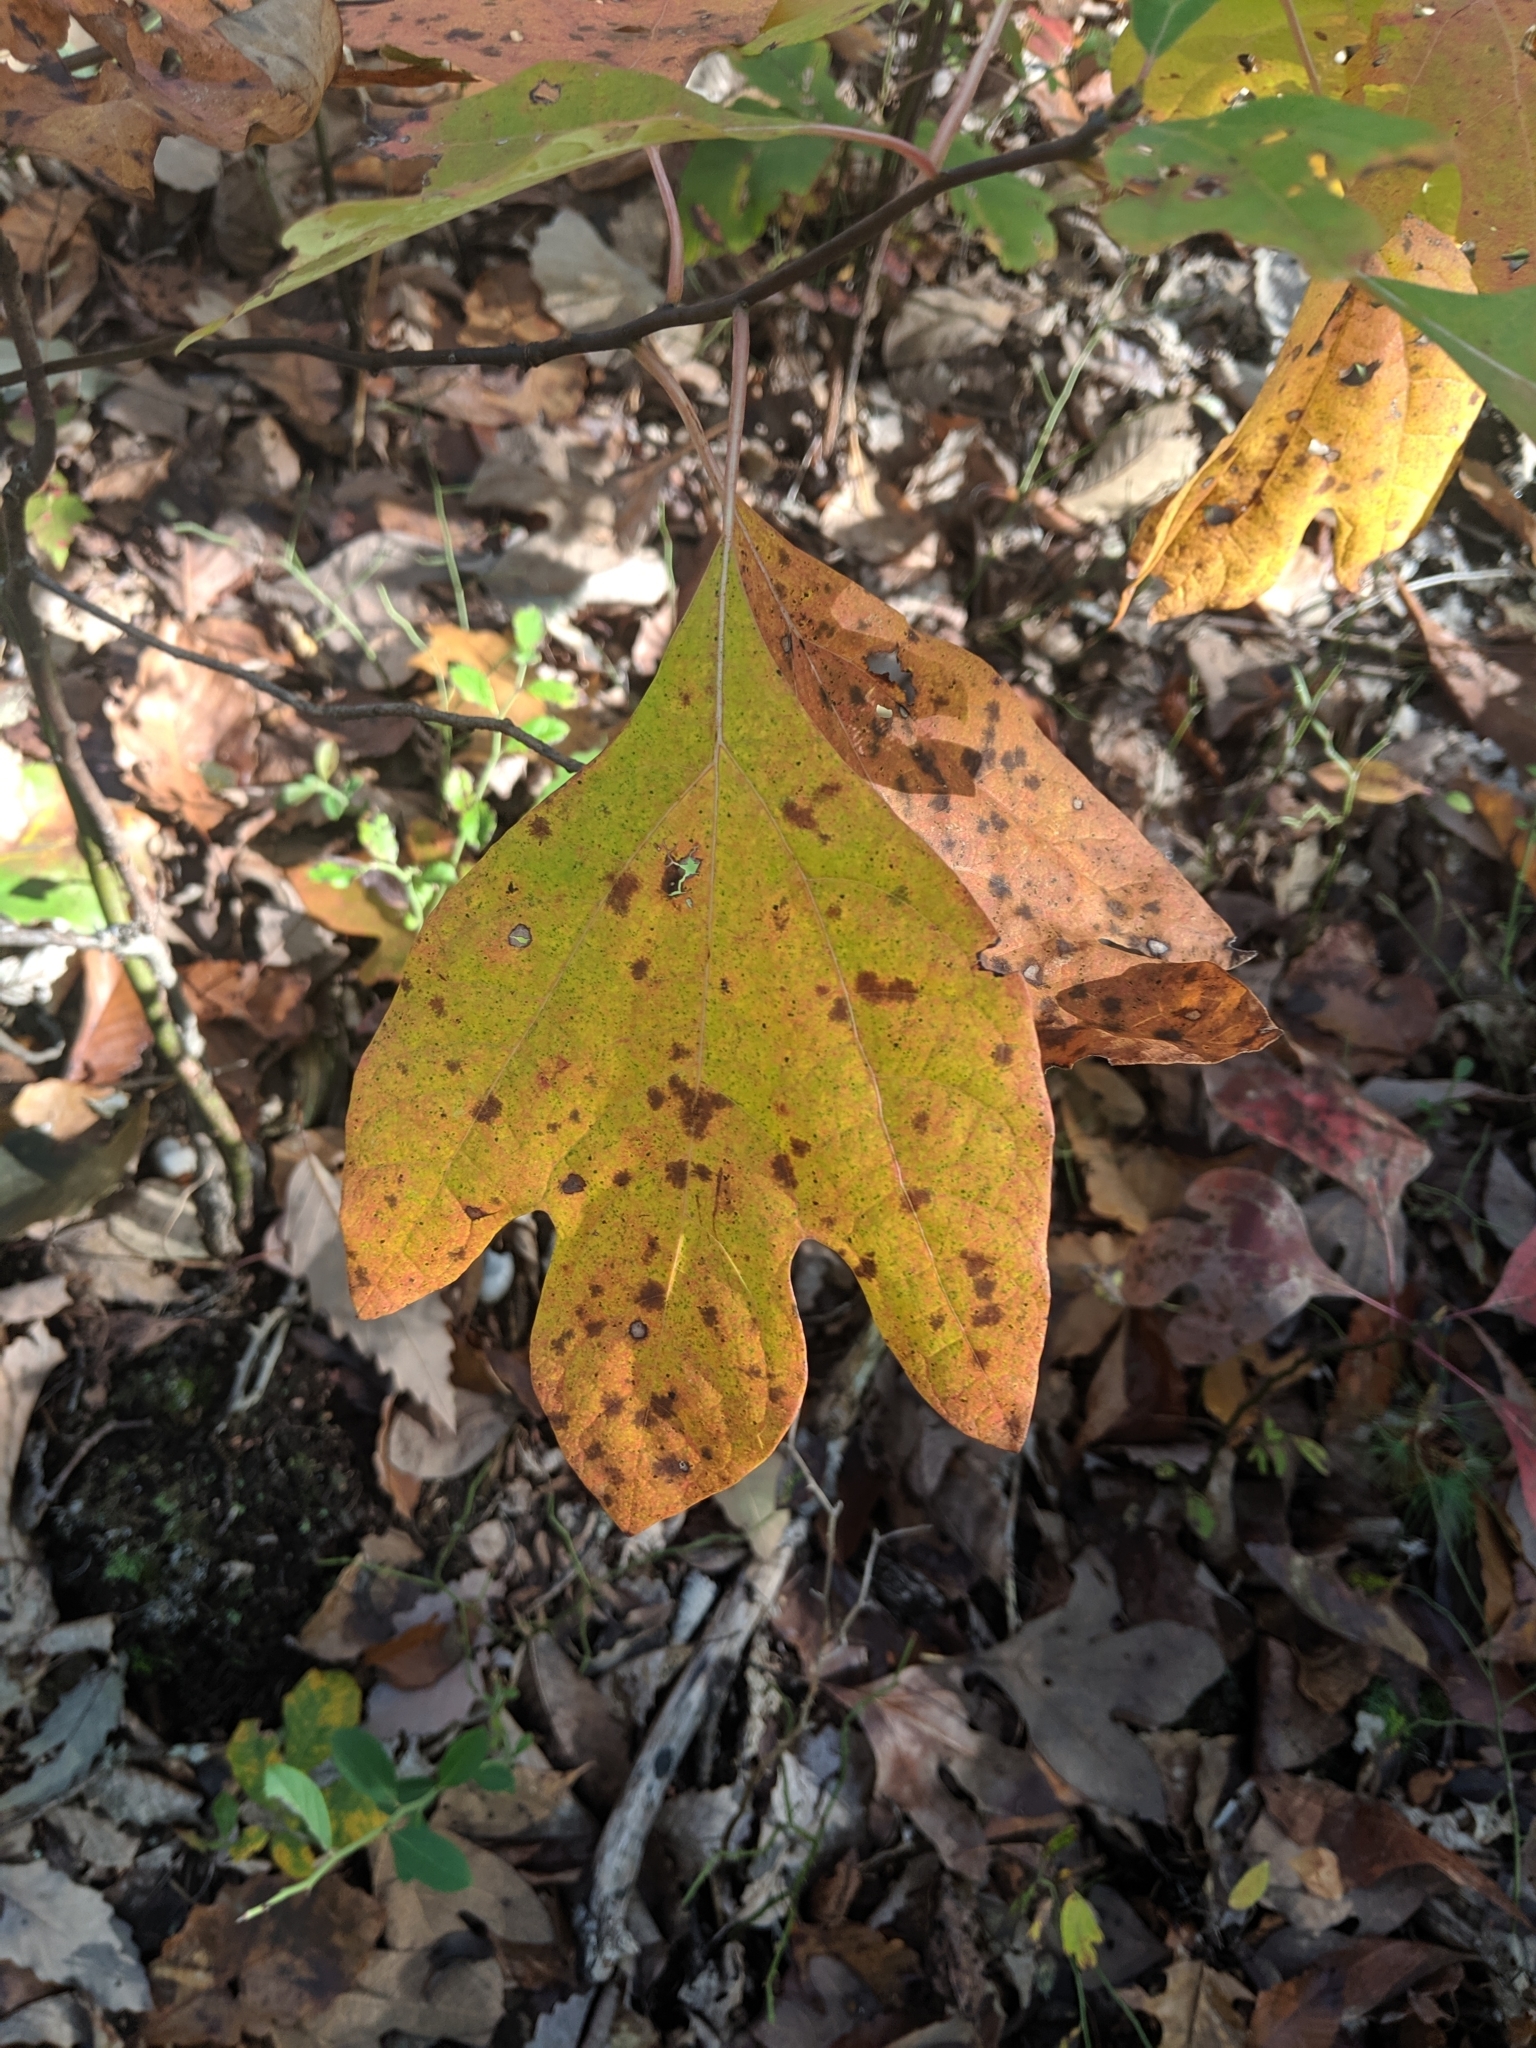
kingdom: Plantae
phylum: Tracheophyta
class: Magnoliopsida
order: Laurales
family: Lauraceae
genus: Sassafras
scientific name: Sassafras albidum
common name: Sassafras
